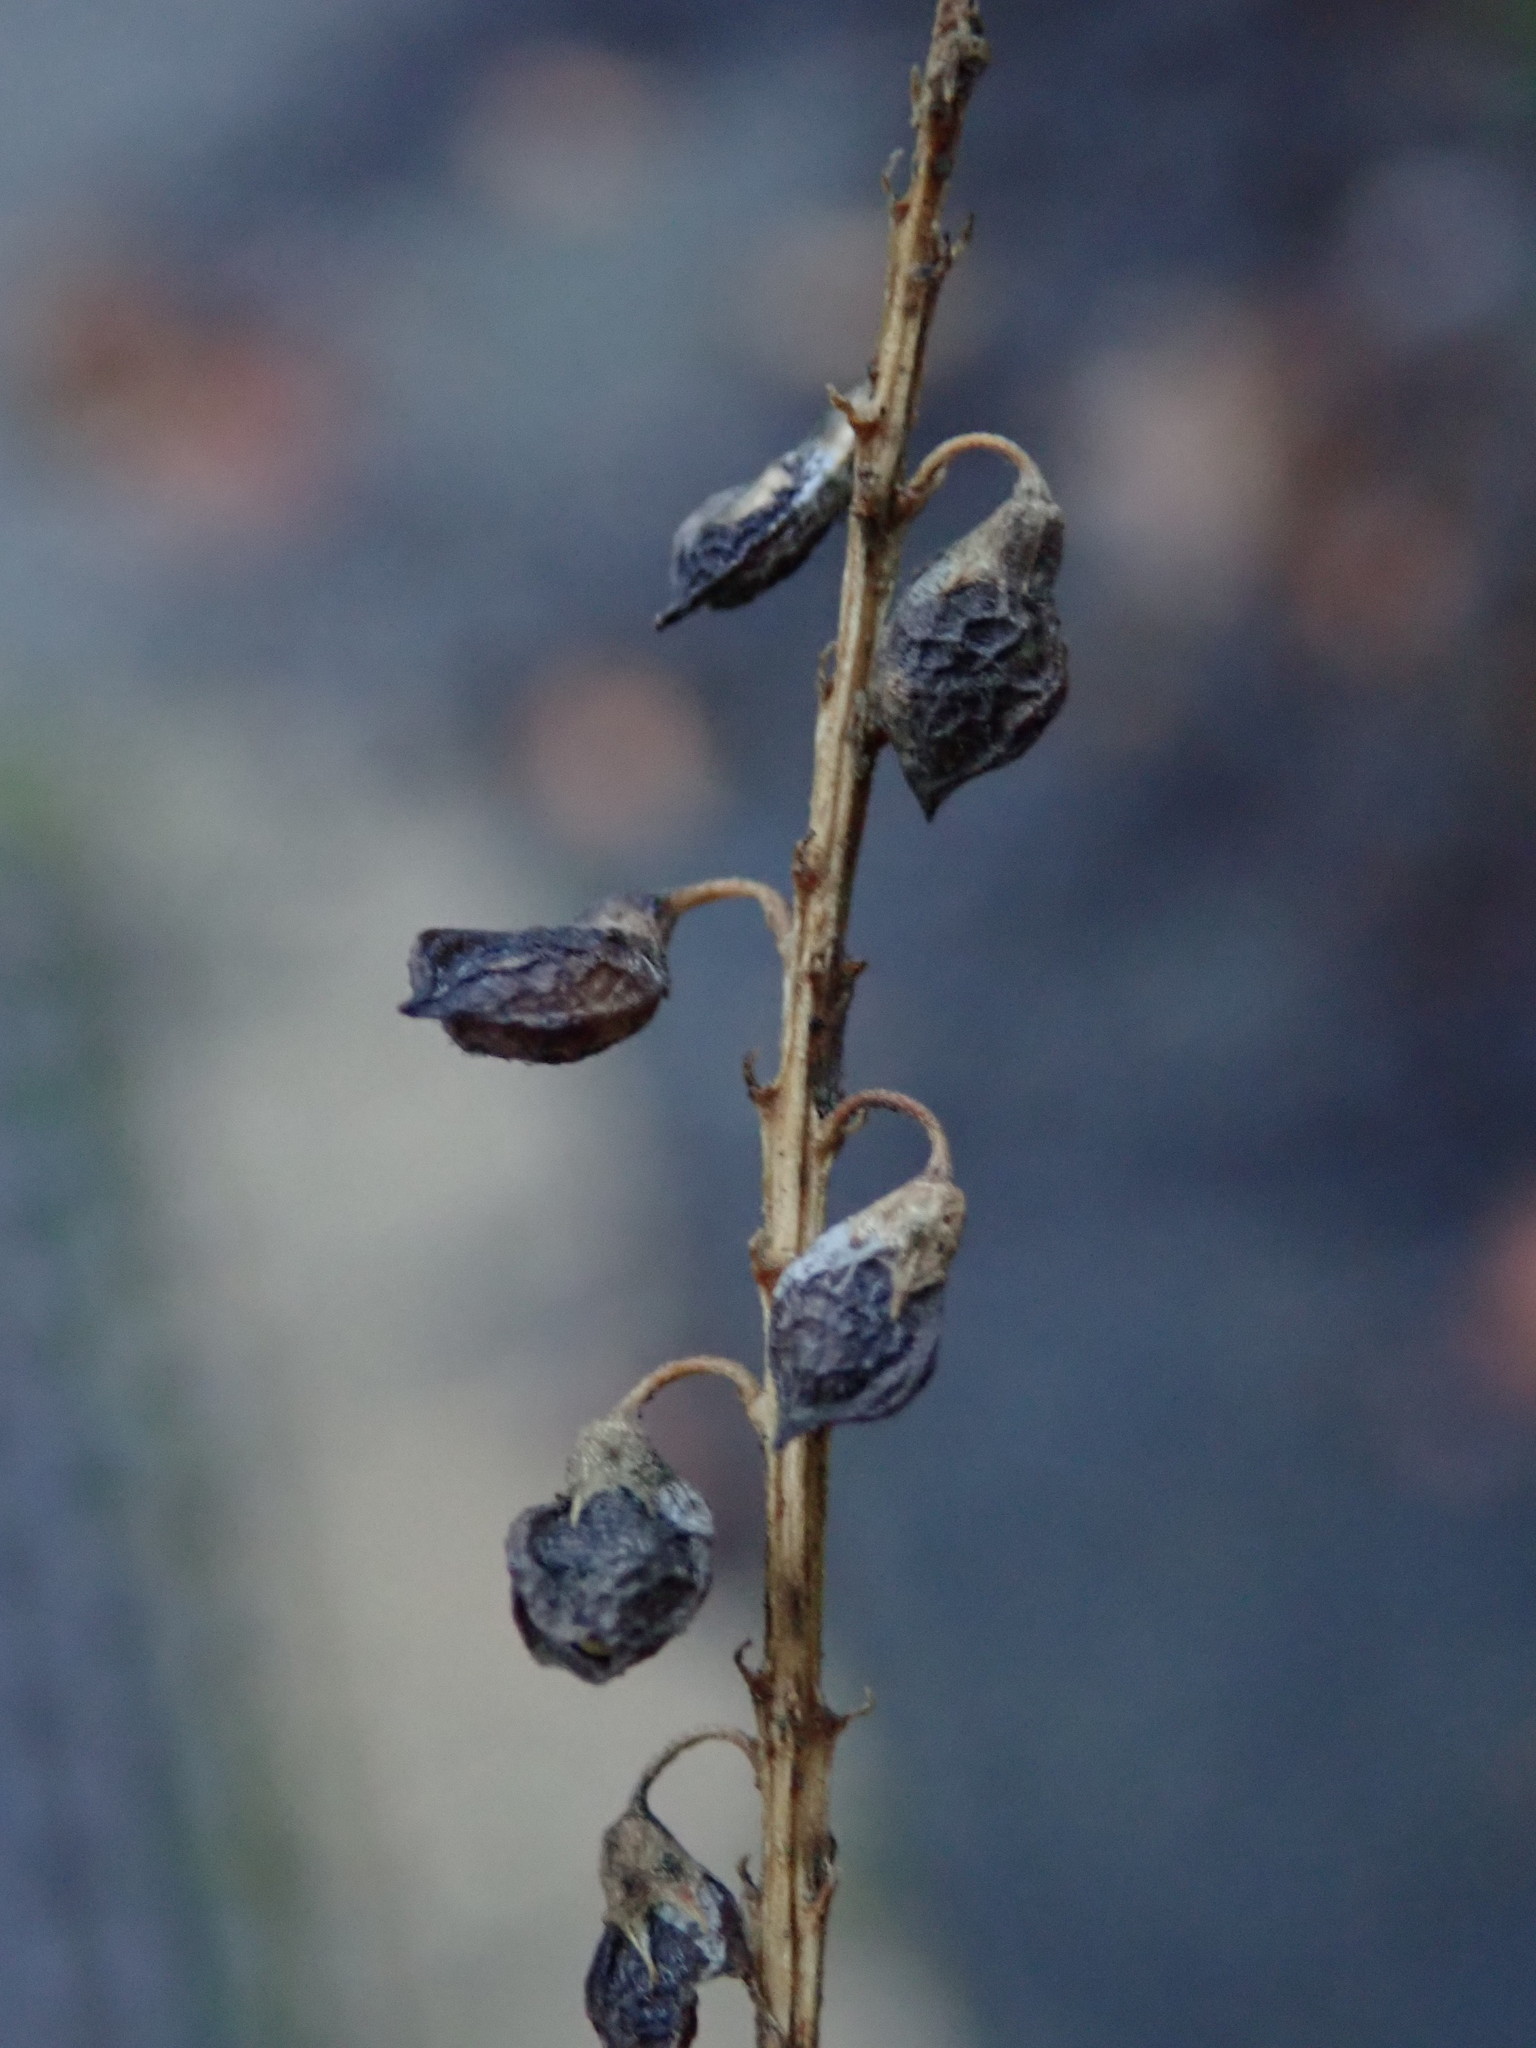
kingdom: Plantae
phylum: Tracheophyta
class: Magnoliopsida
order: Fabales
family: Fabaceae
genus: Melilotus
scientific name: Melilotus officinalis
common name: Sweetclover
